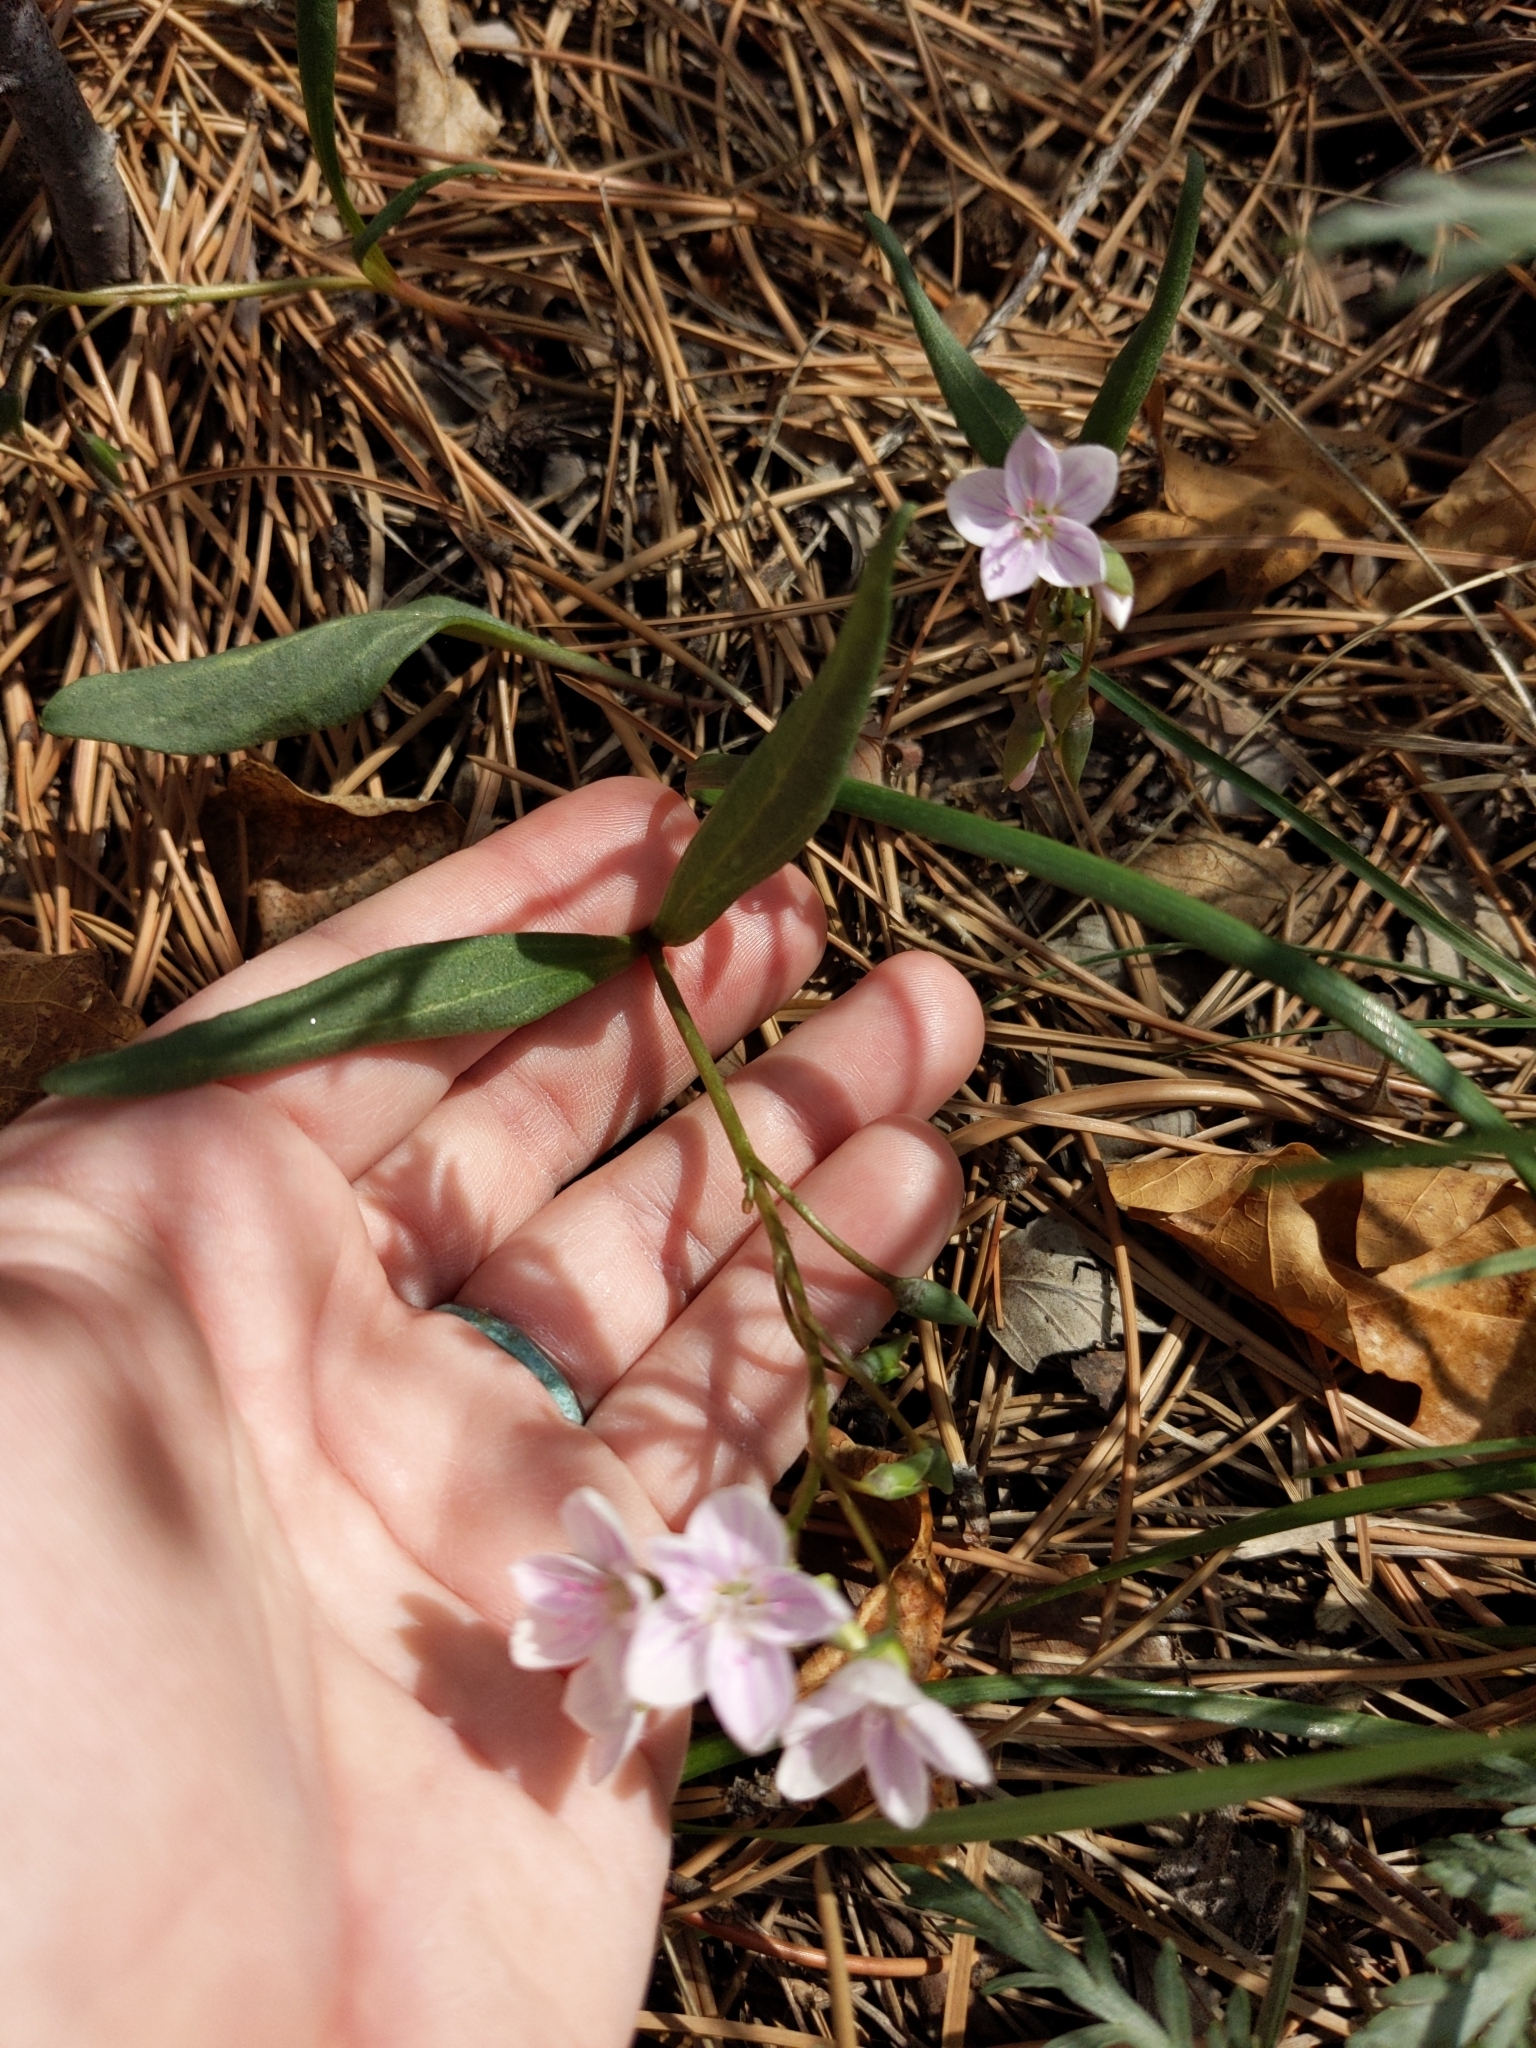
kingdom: Plantae
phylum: Tracheophyta
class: Magnoliopsida
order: Caryophyllales
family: Montiaceae
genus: Claytonia
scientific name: Claytonia rosea
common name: Rocky mountain spring-beauty
